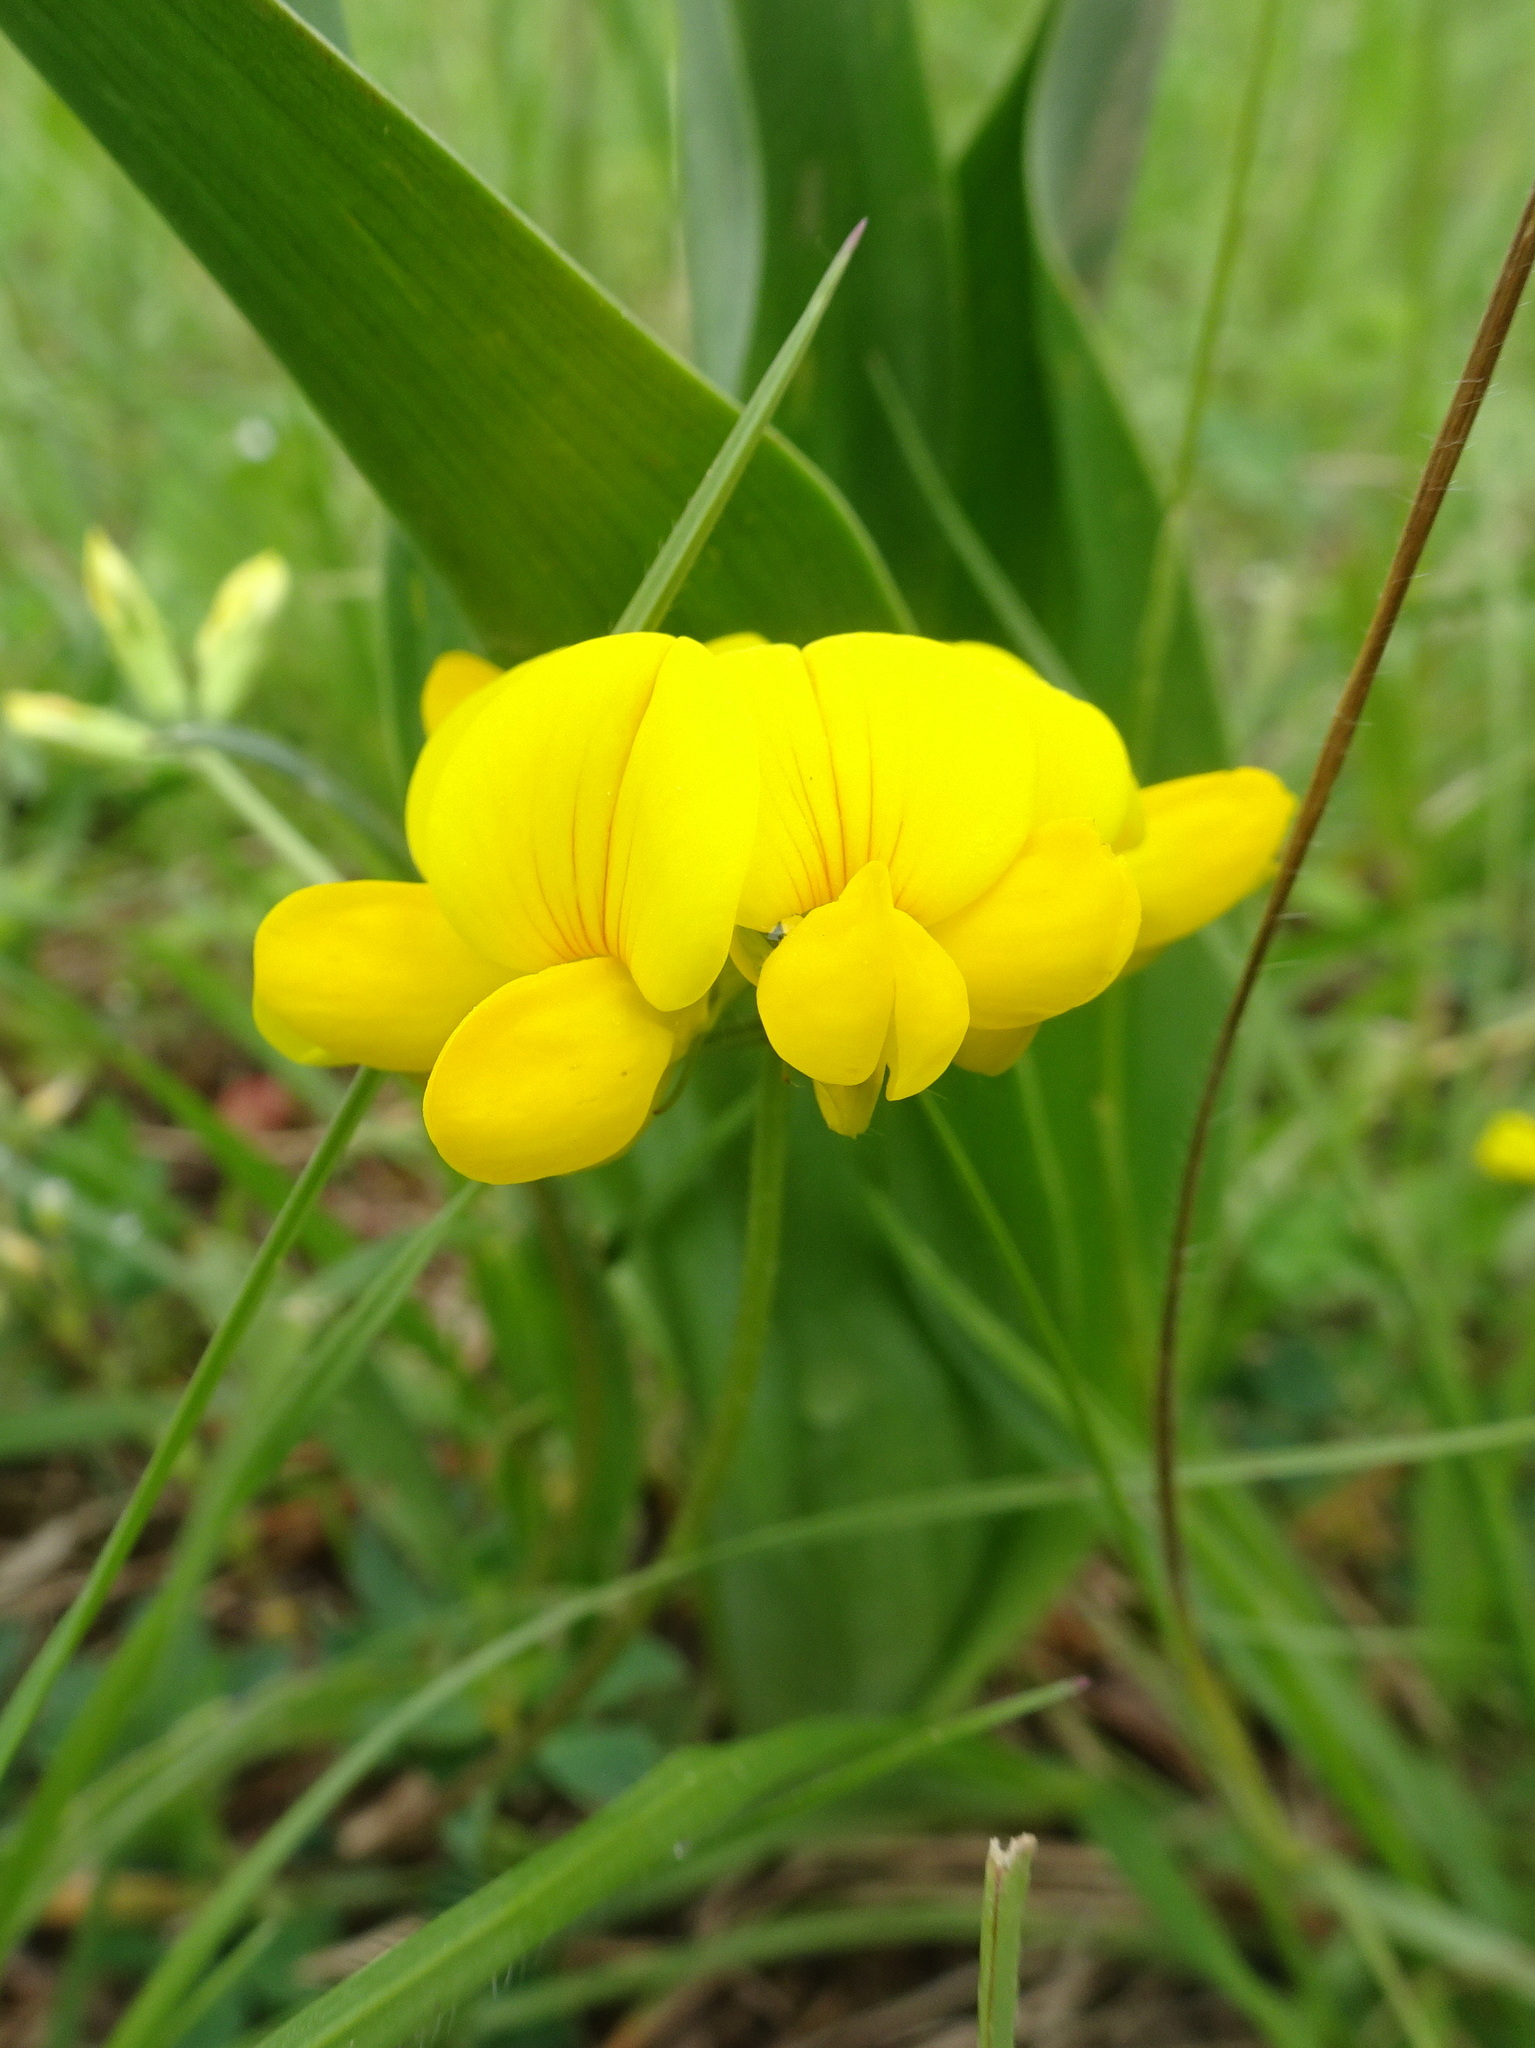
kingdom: Plantae
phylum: Tracheophyta
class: Magnoliopsida
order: Fabales
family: Fabaceae
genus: Lotus
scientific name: Lotus corniculatus
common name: Common bird's-foot-trefoil
